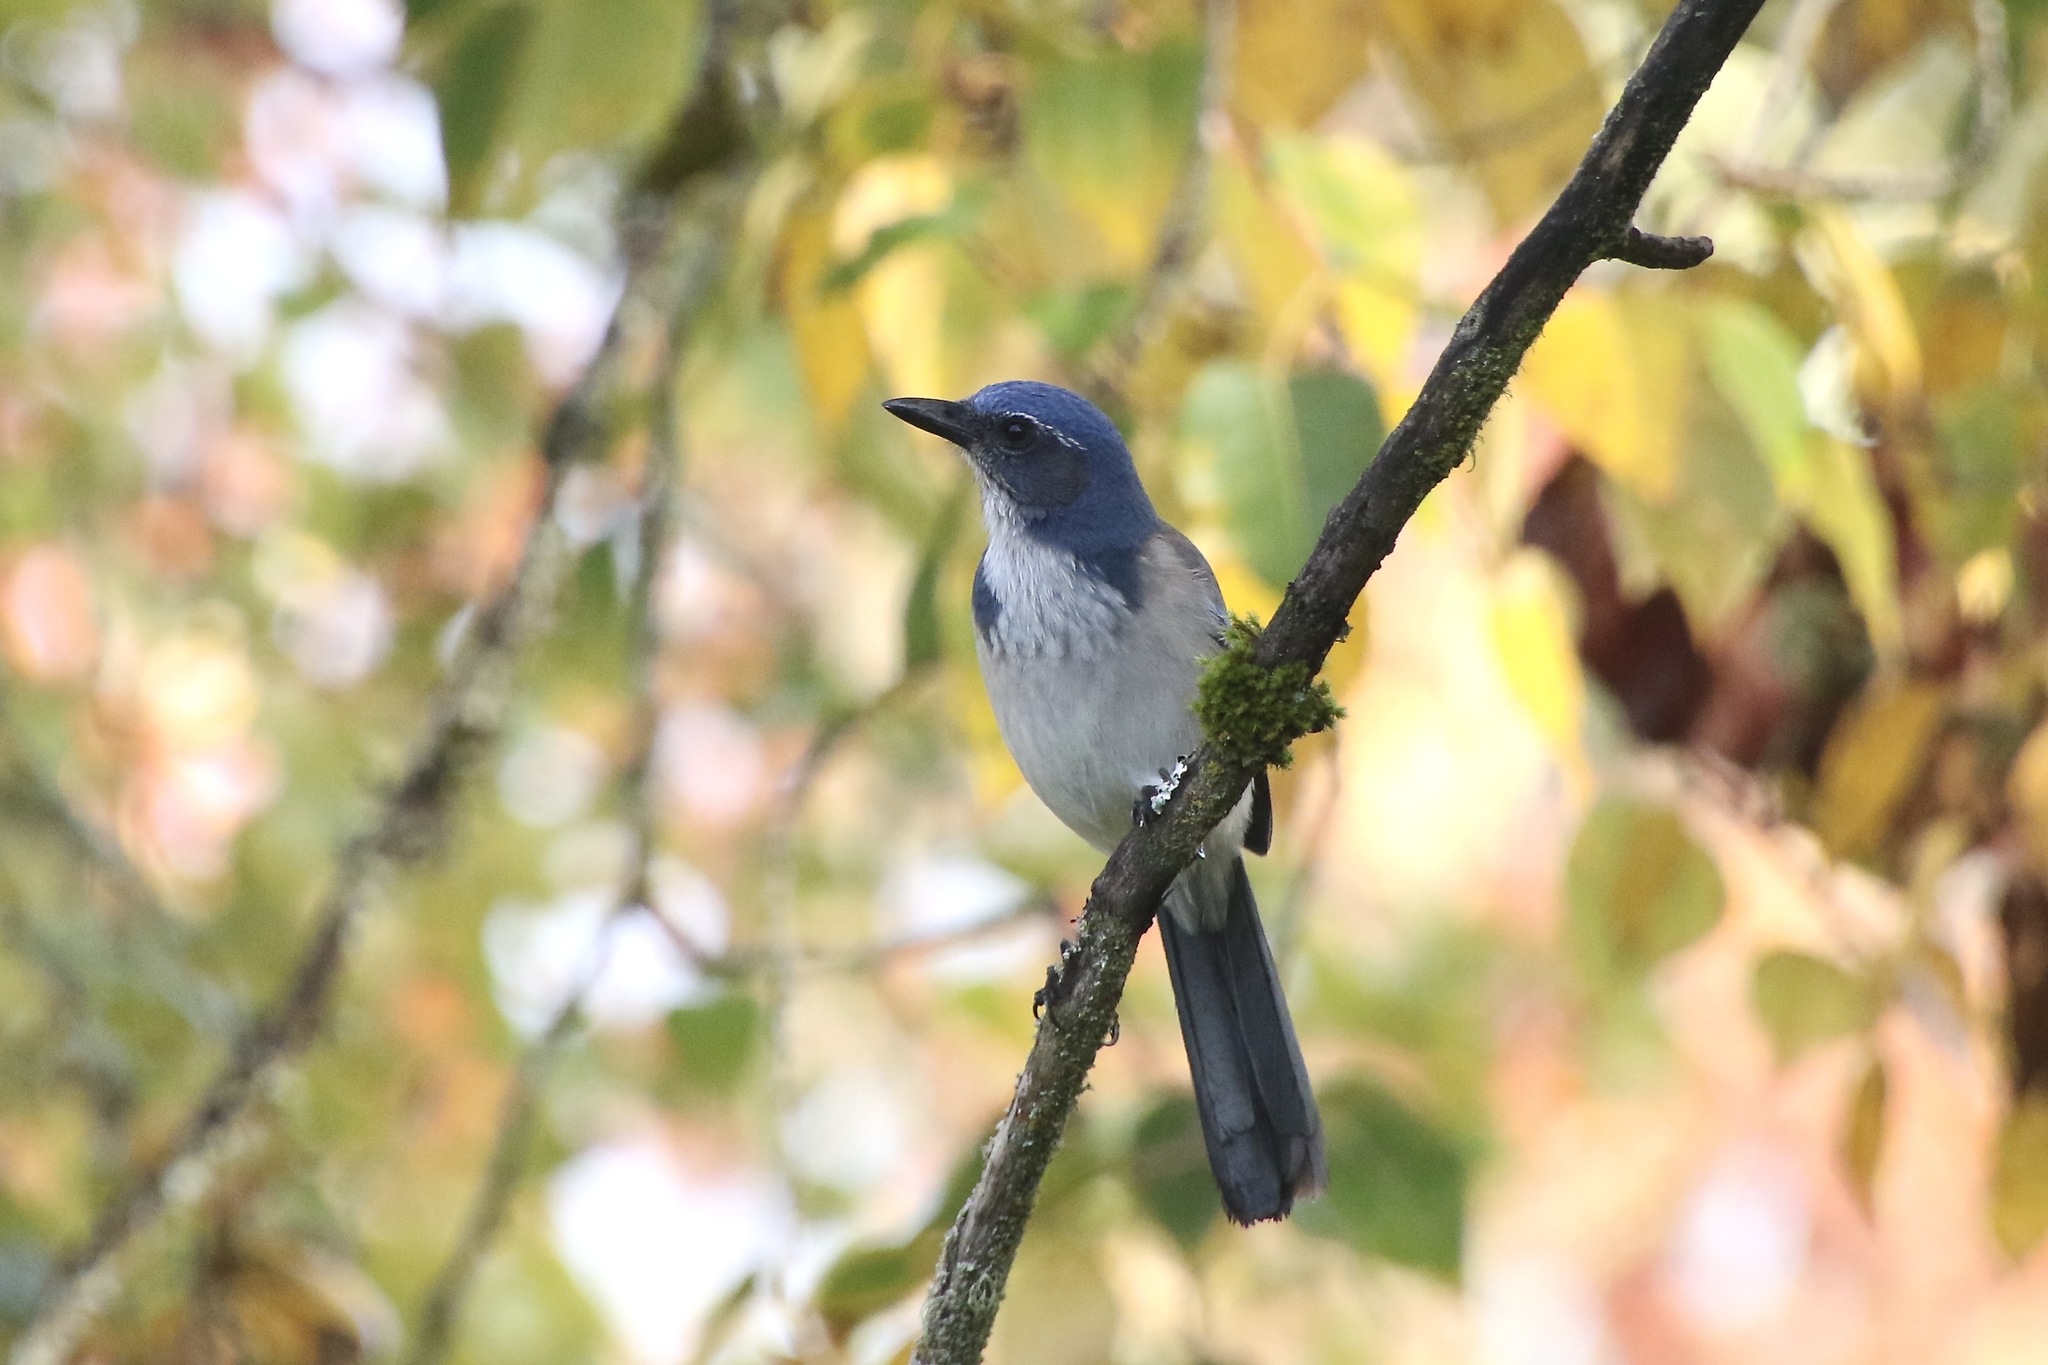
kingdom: Animalia
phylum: Chordata
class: Aves
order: Passeriformes
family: Corvidae
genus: Aphelocoma
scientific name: Aphelocoma californica
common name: California scrub-jay
